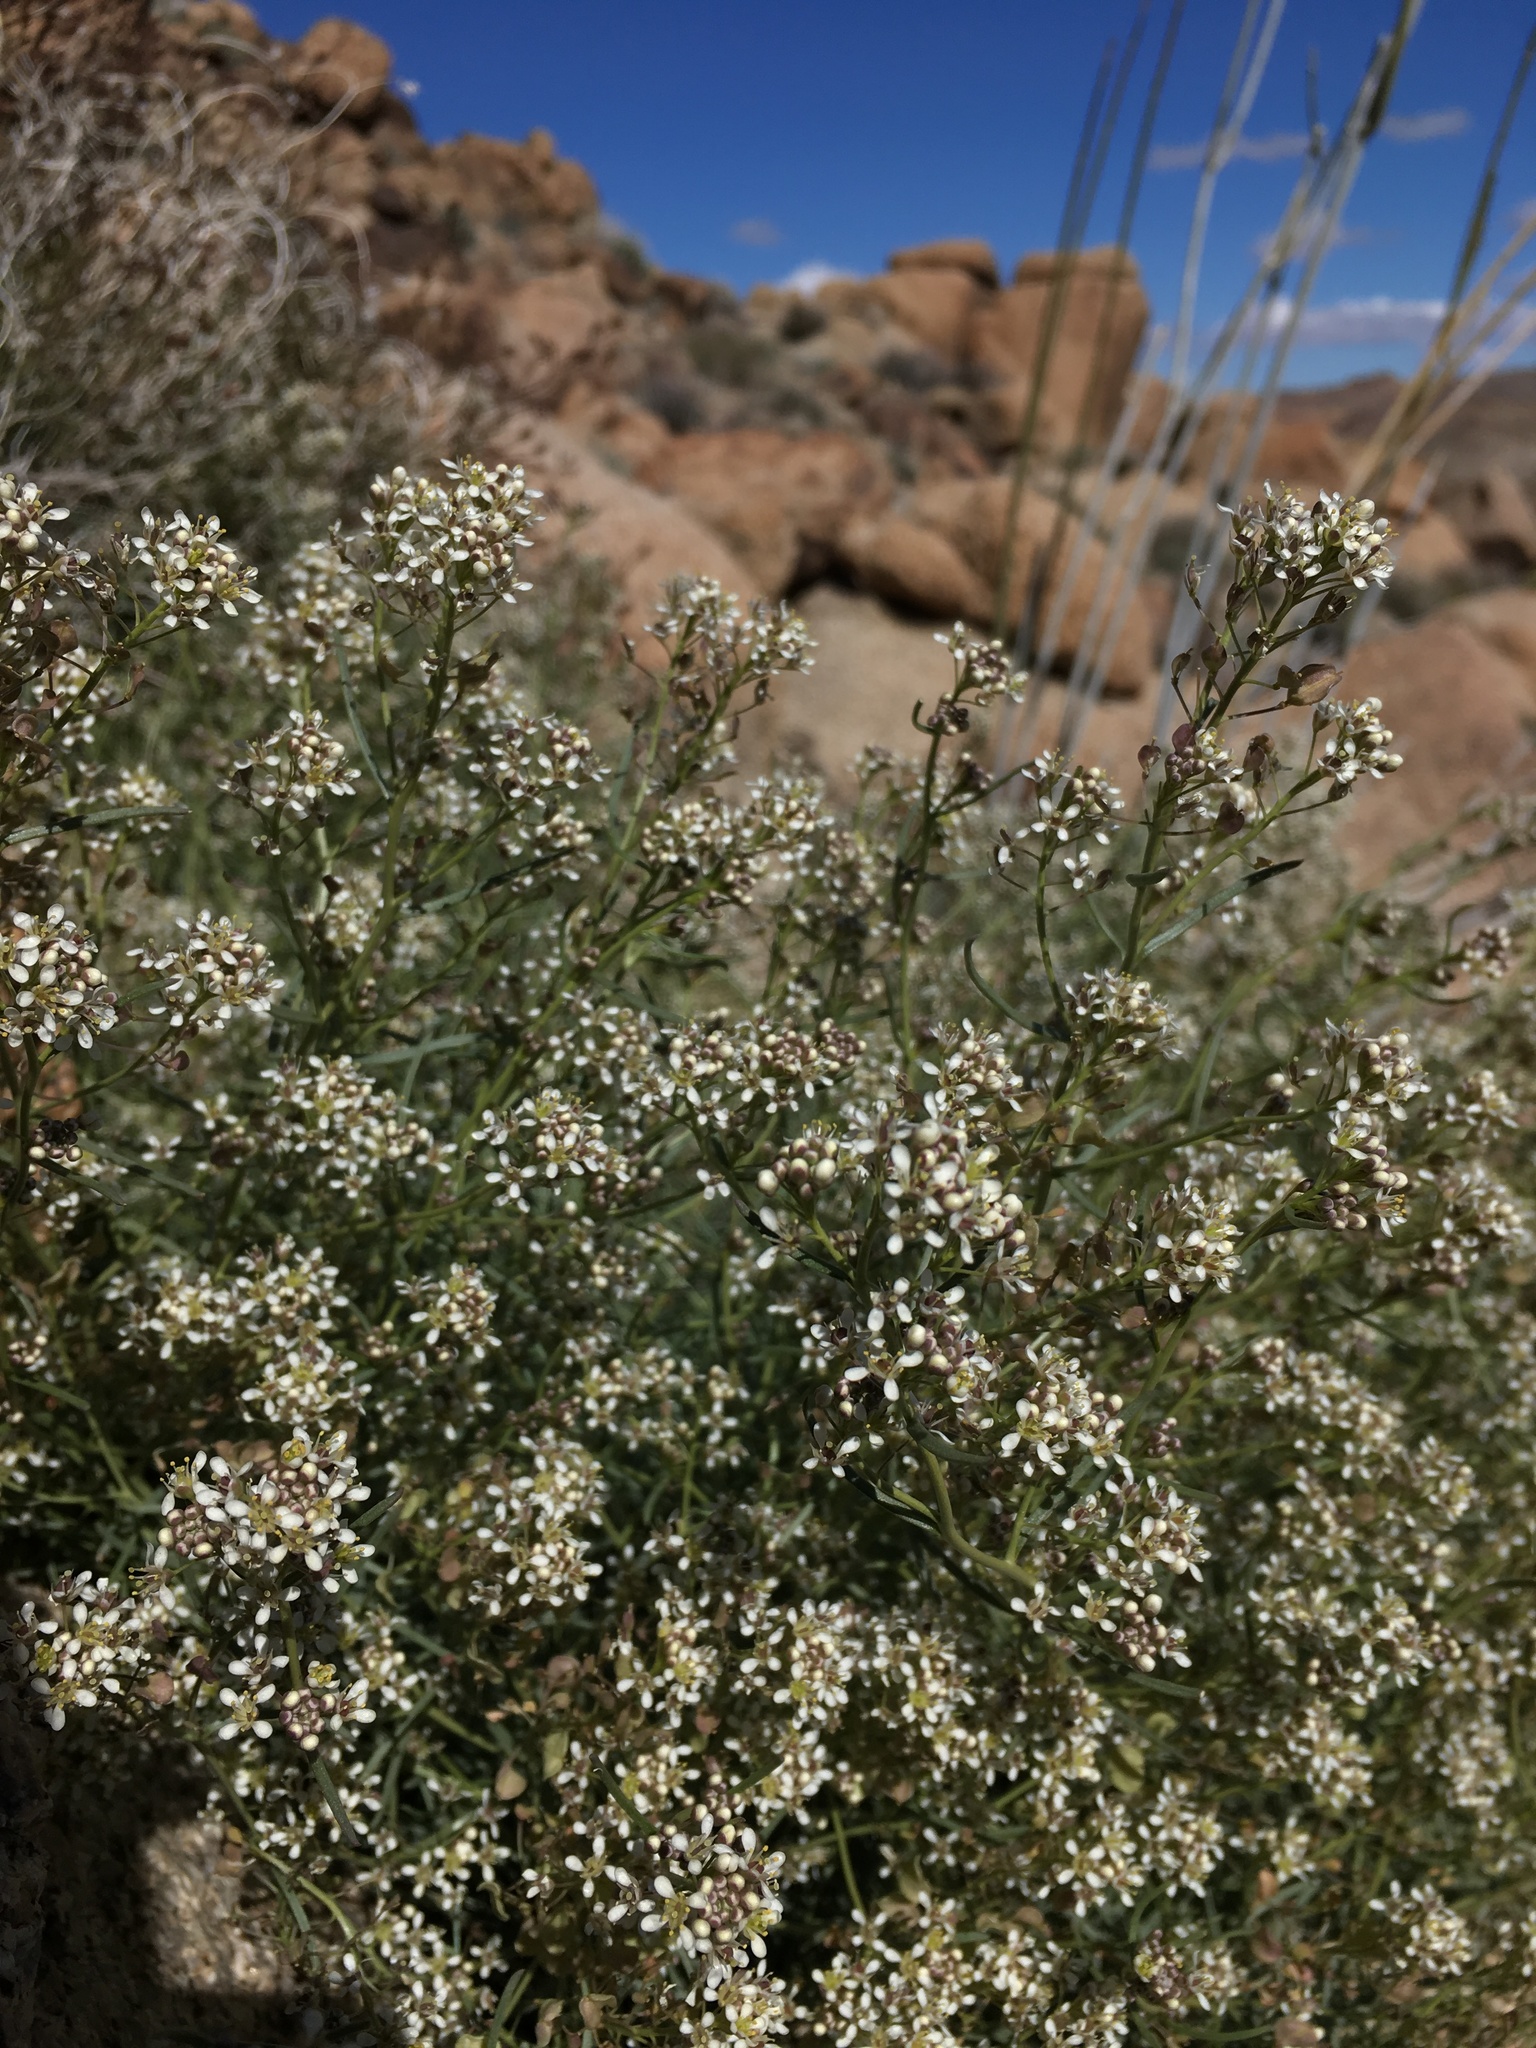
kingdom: Plantae
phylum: Tracheophyta
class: Magnoliopsida
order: Brassicales
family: Brassicaceae
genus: Lepidium
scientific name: Lepidium fremontii
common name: Fremont's pepperwort
